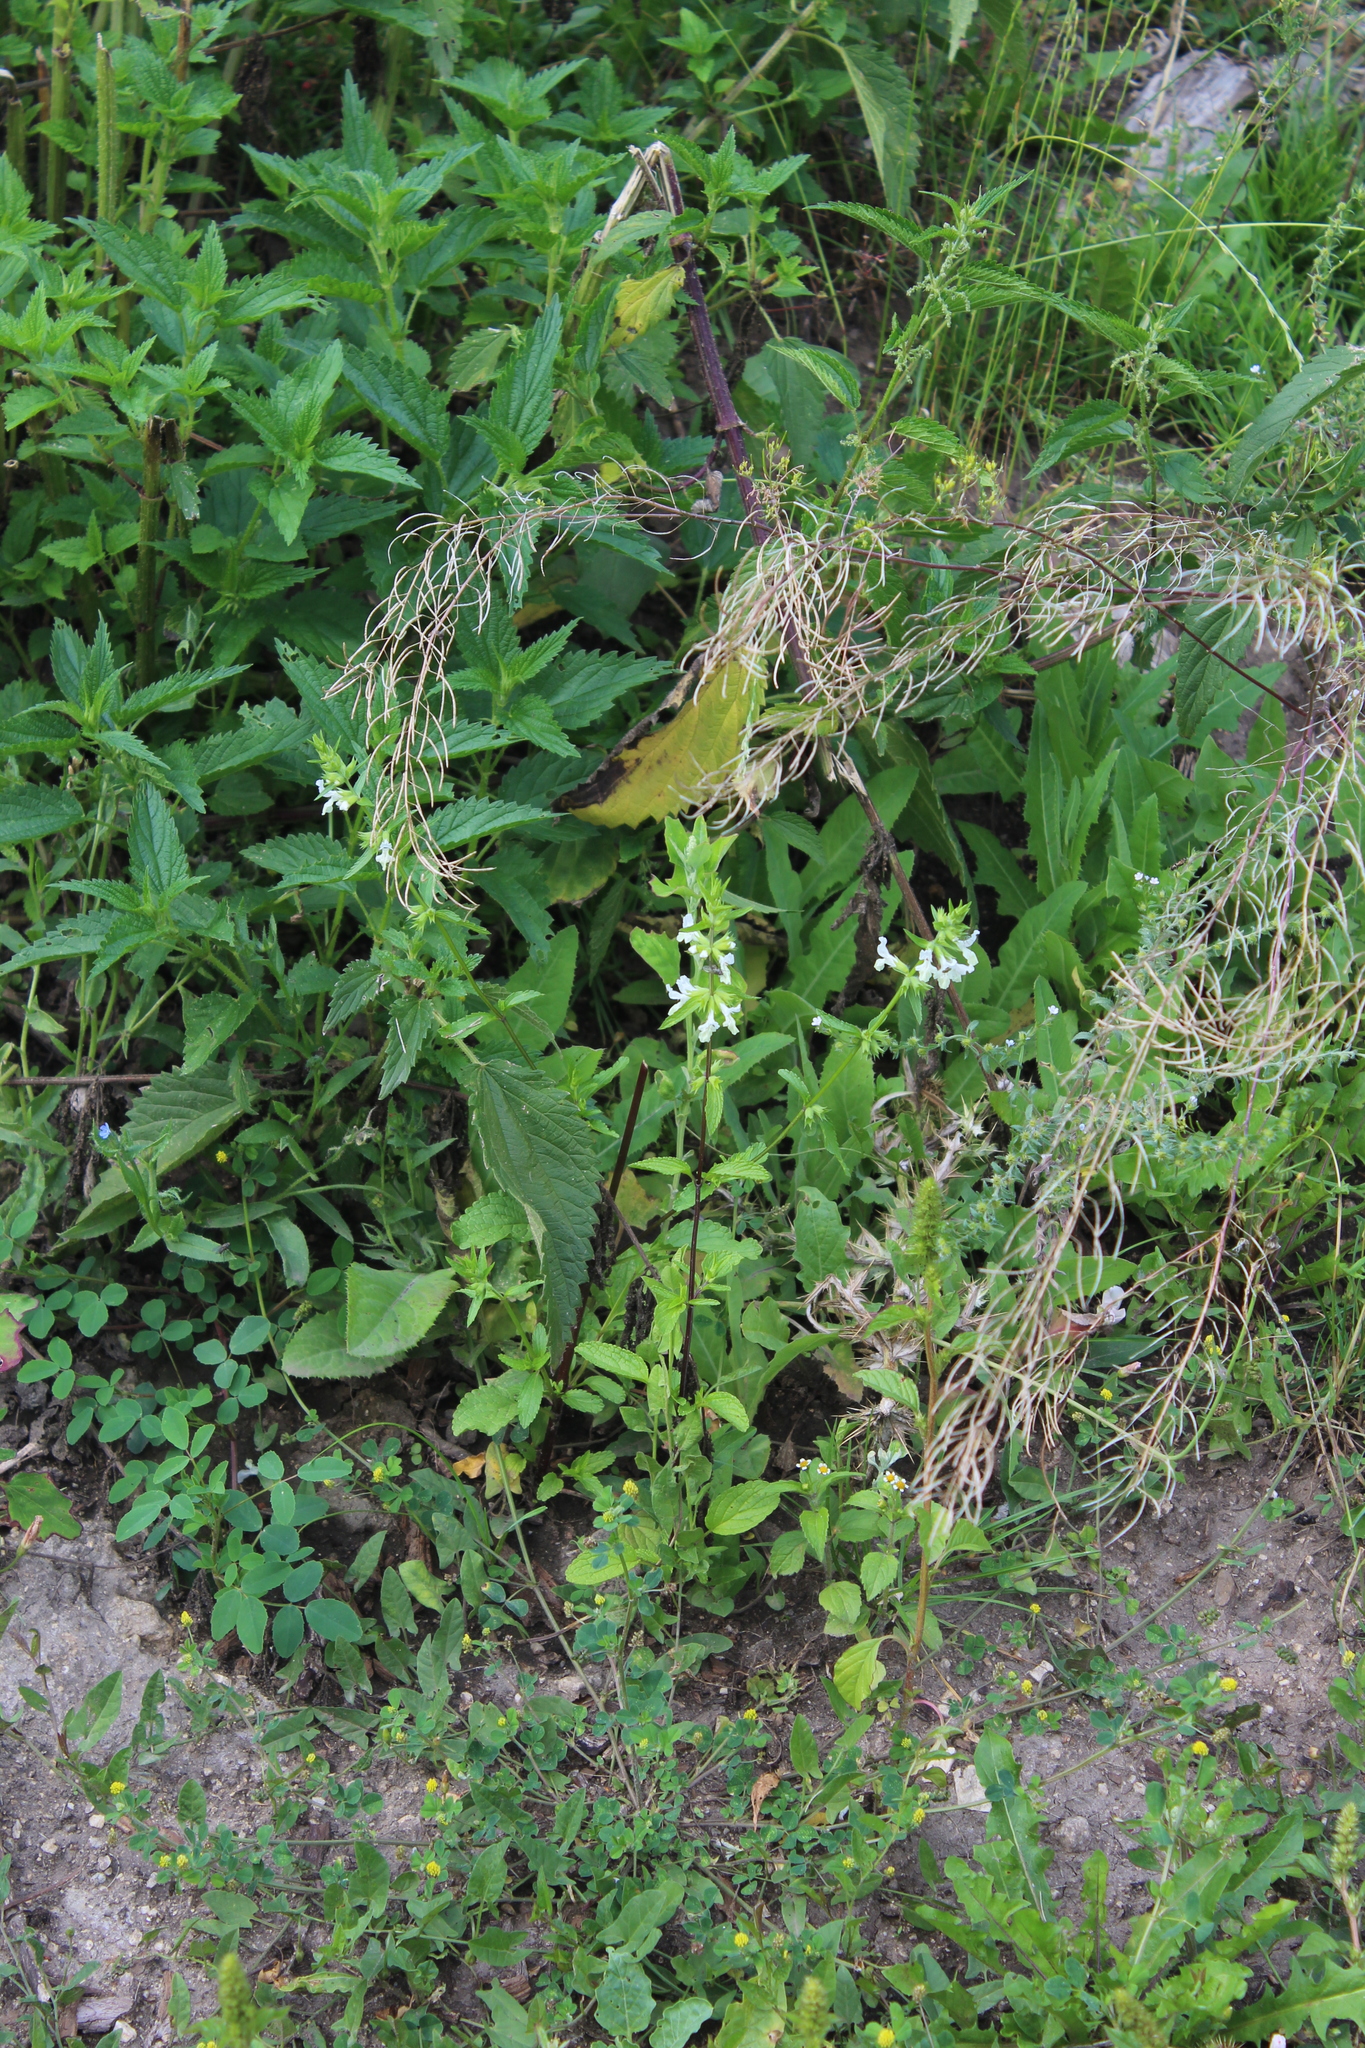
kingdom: Plantae
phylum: Tracheophyta
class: Magnoliopsida
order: Lamiales
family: Lamiaceae
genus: Stachys
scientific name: Stachys annua
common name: Annual yellow-woundwort
